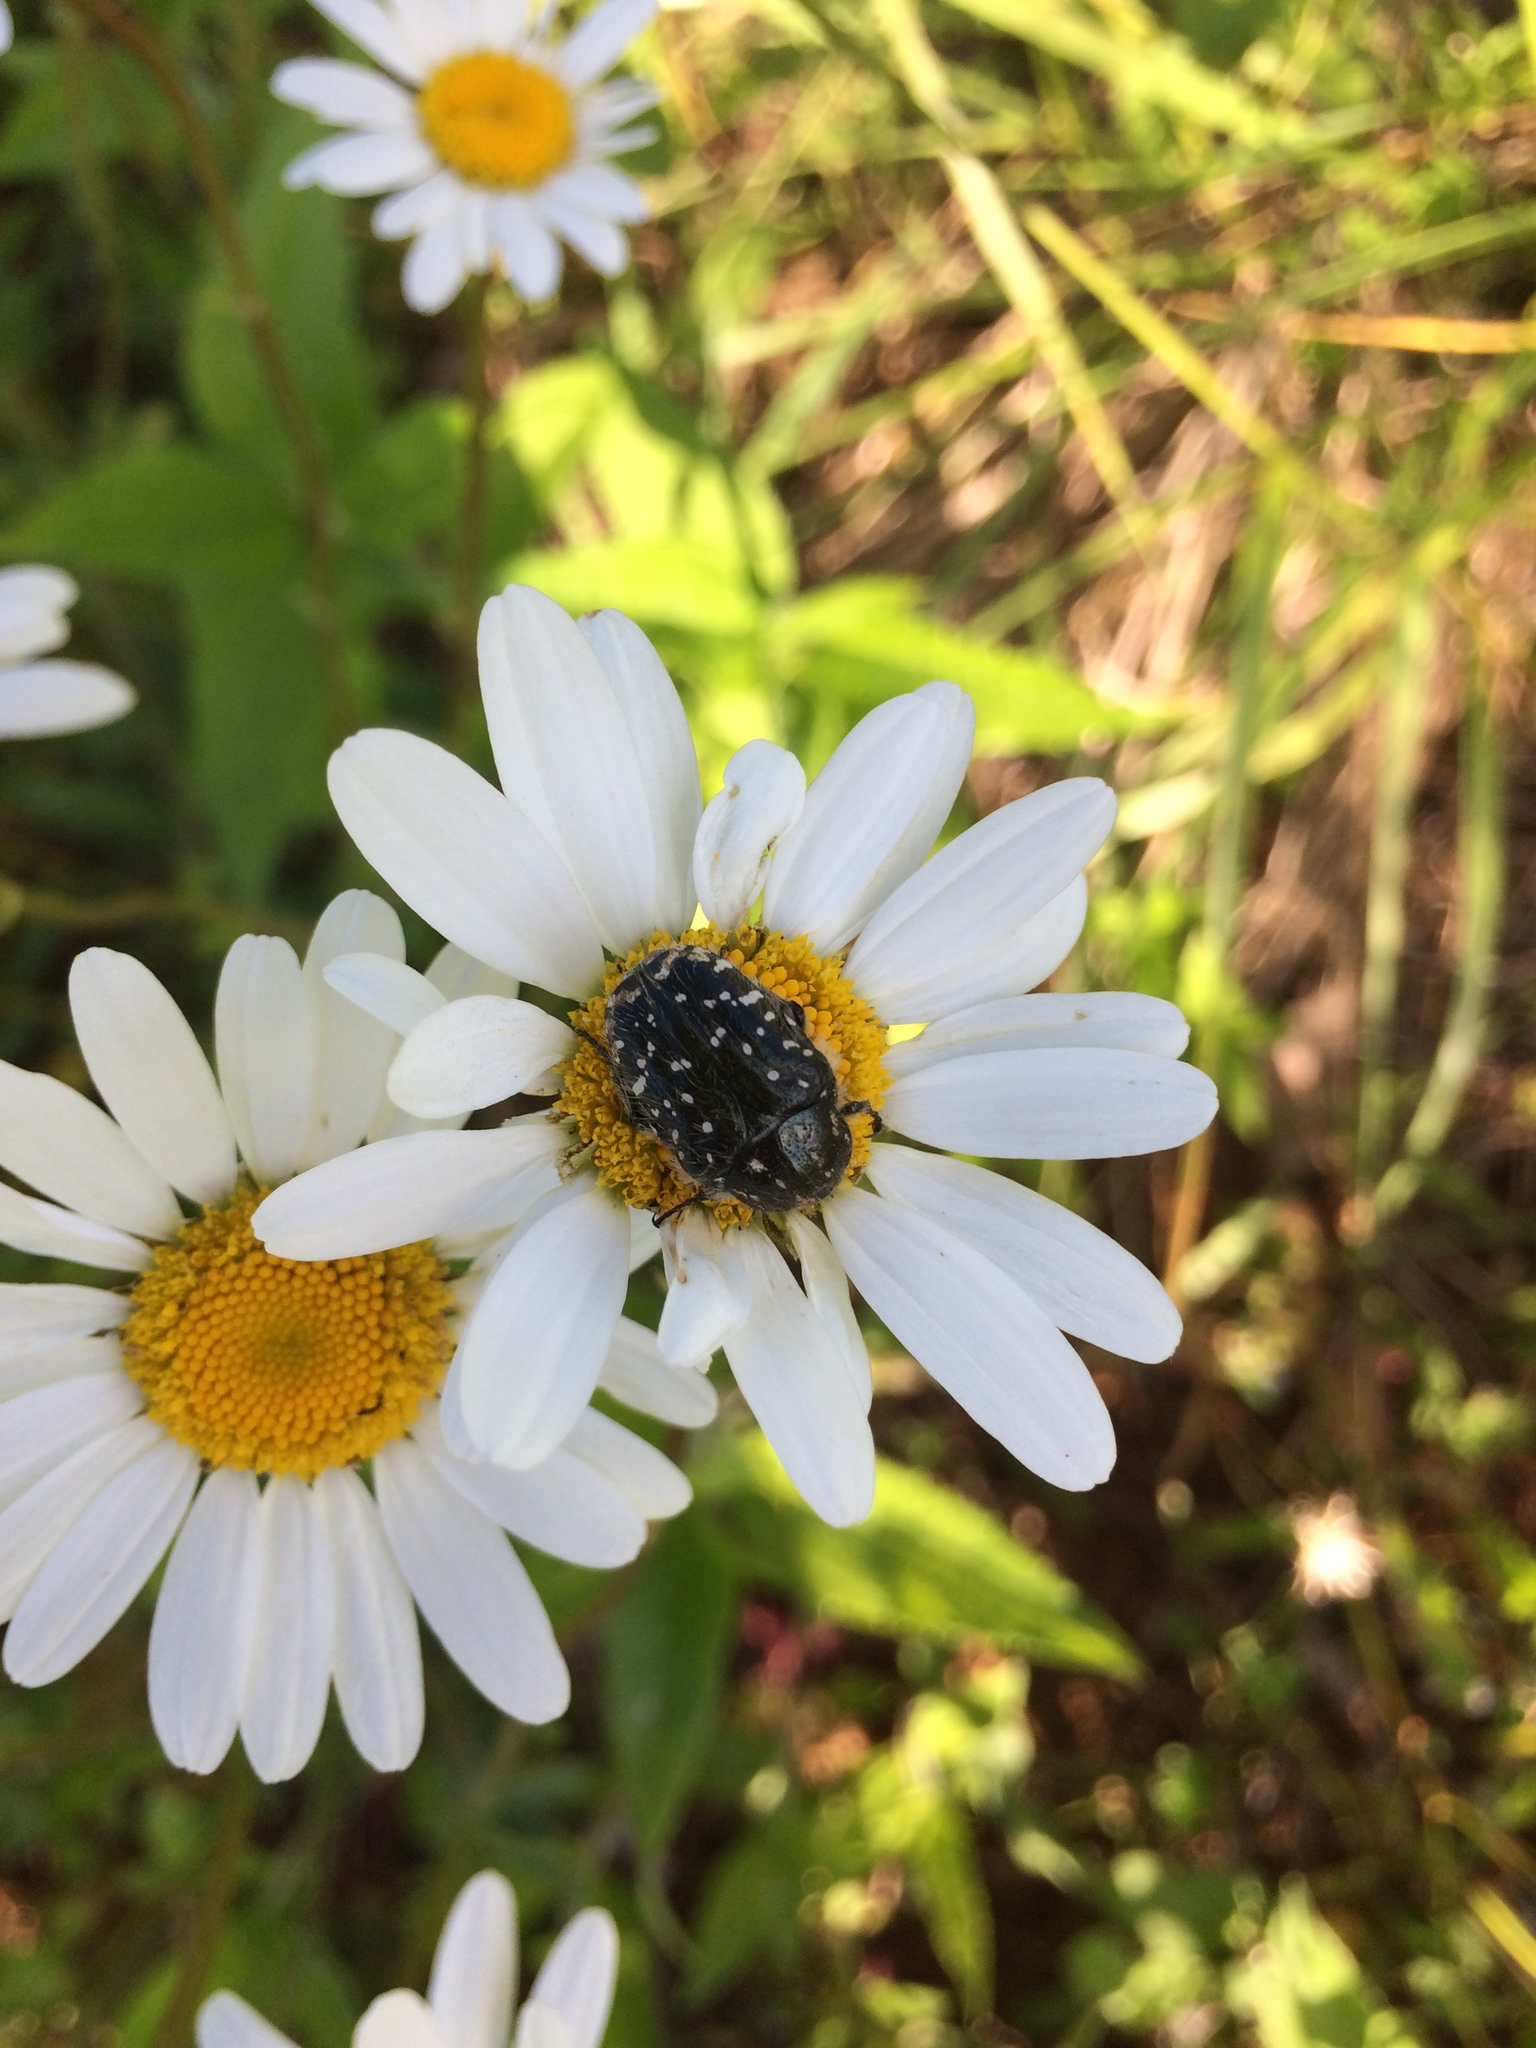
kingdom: Animalia
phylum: Arthropoda
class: Insecta
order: Coleoptera
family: Scarabaeidae
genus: Oxythyrea
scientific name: Oxythyrea funesta
